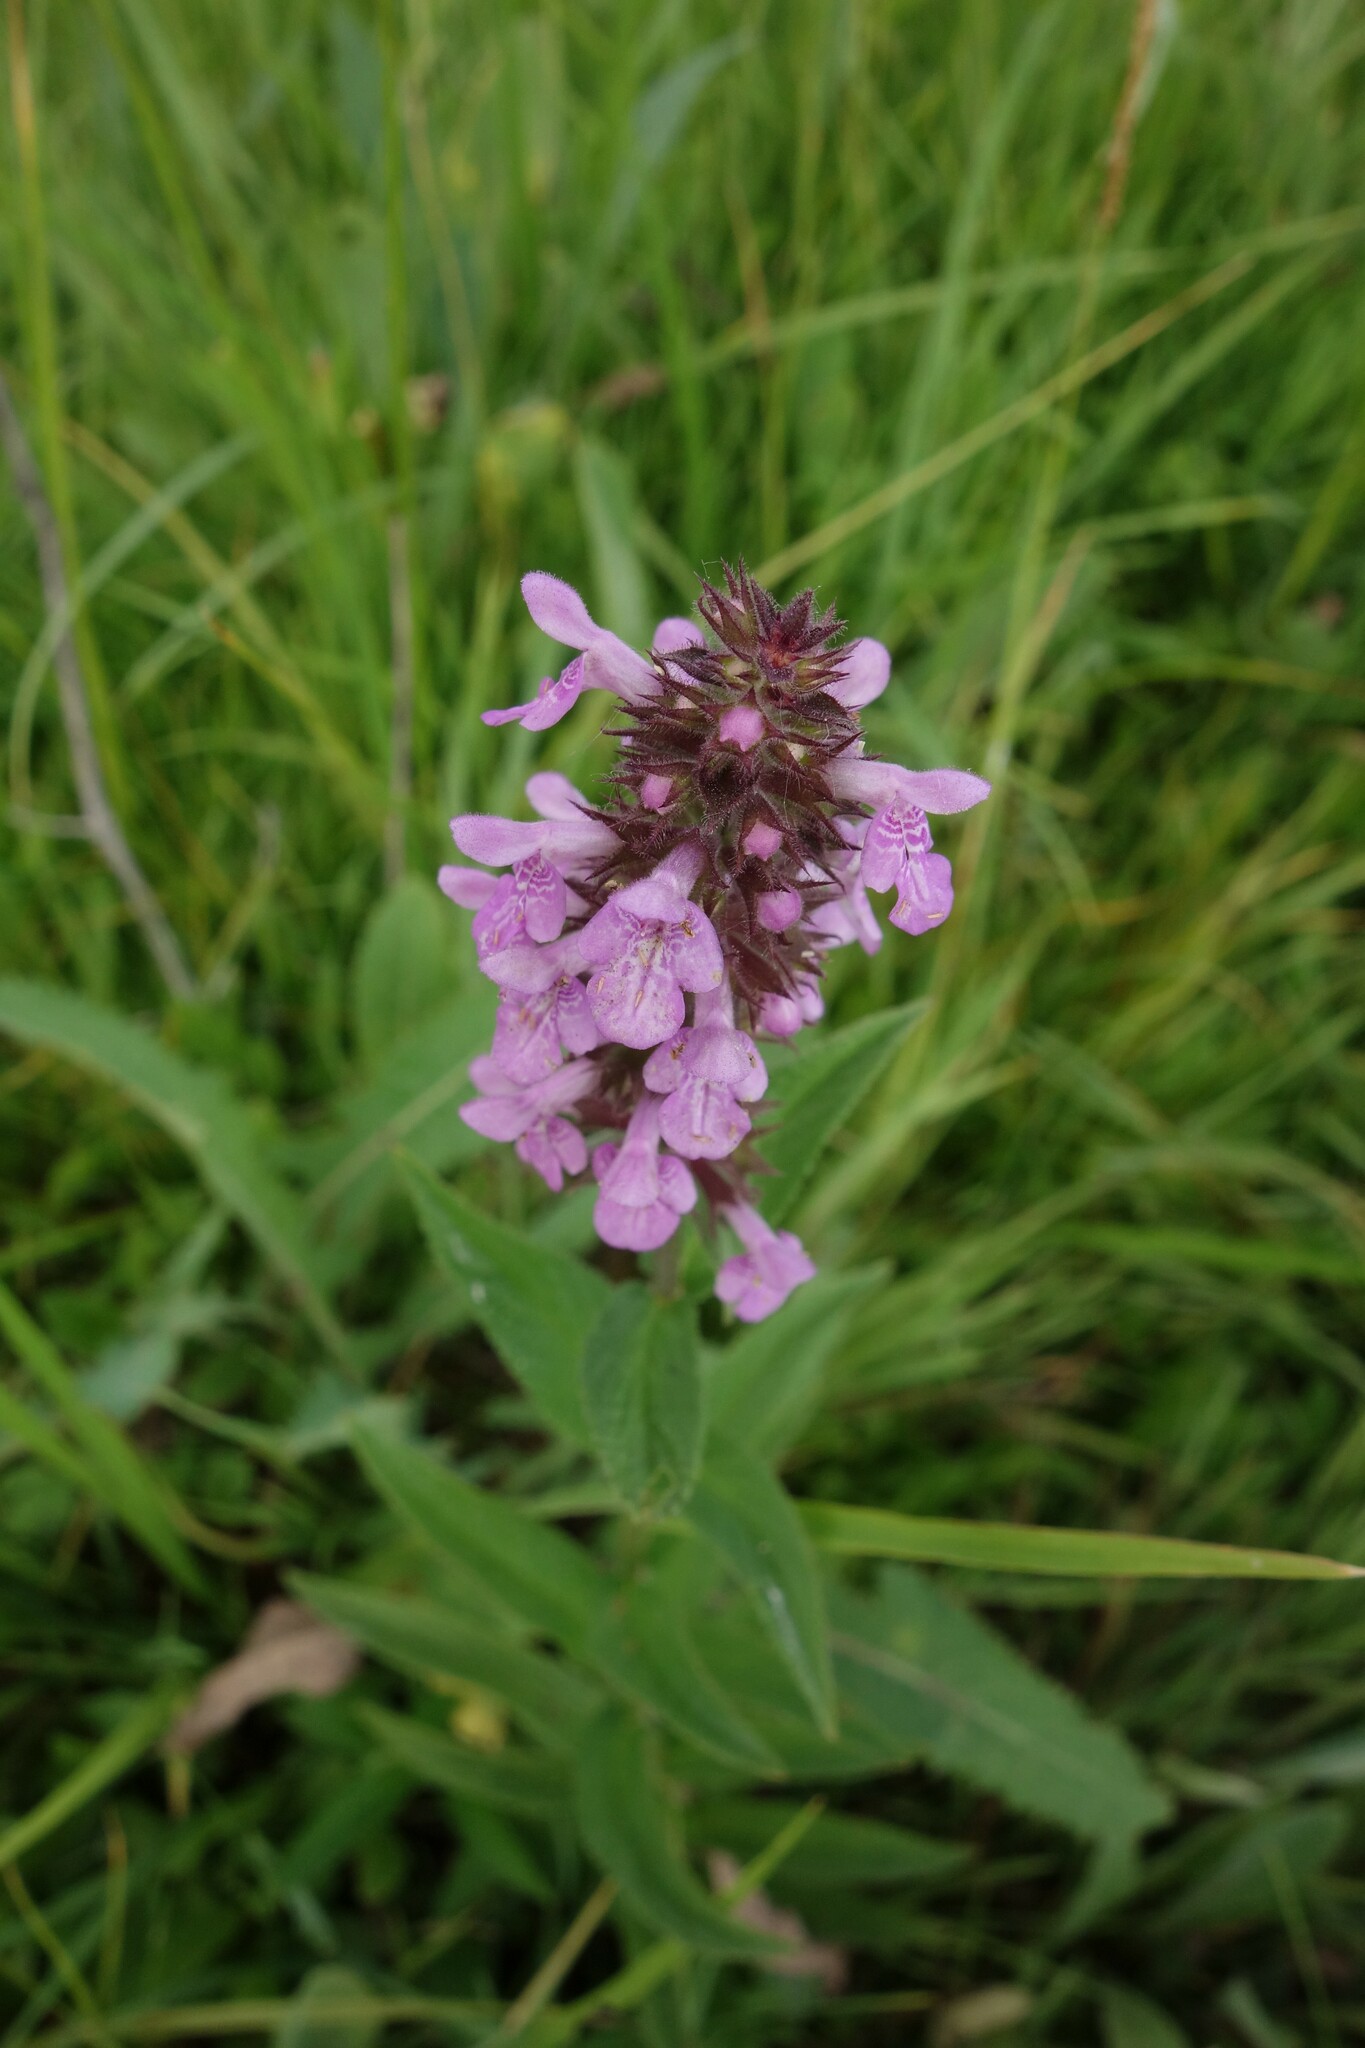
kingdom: Plantae
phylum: Tracheophyta
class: Magnoliopsida
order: Lamiales
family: Lamiaceae
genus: Stachys
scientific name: Stachys palustris
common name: Marsh woundwort
